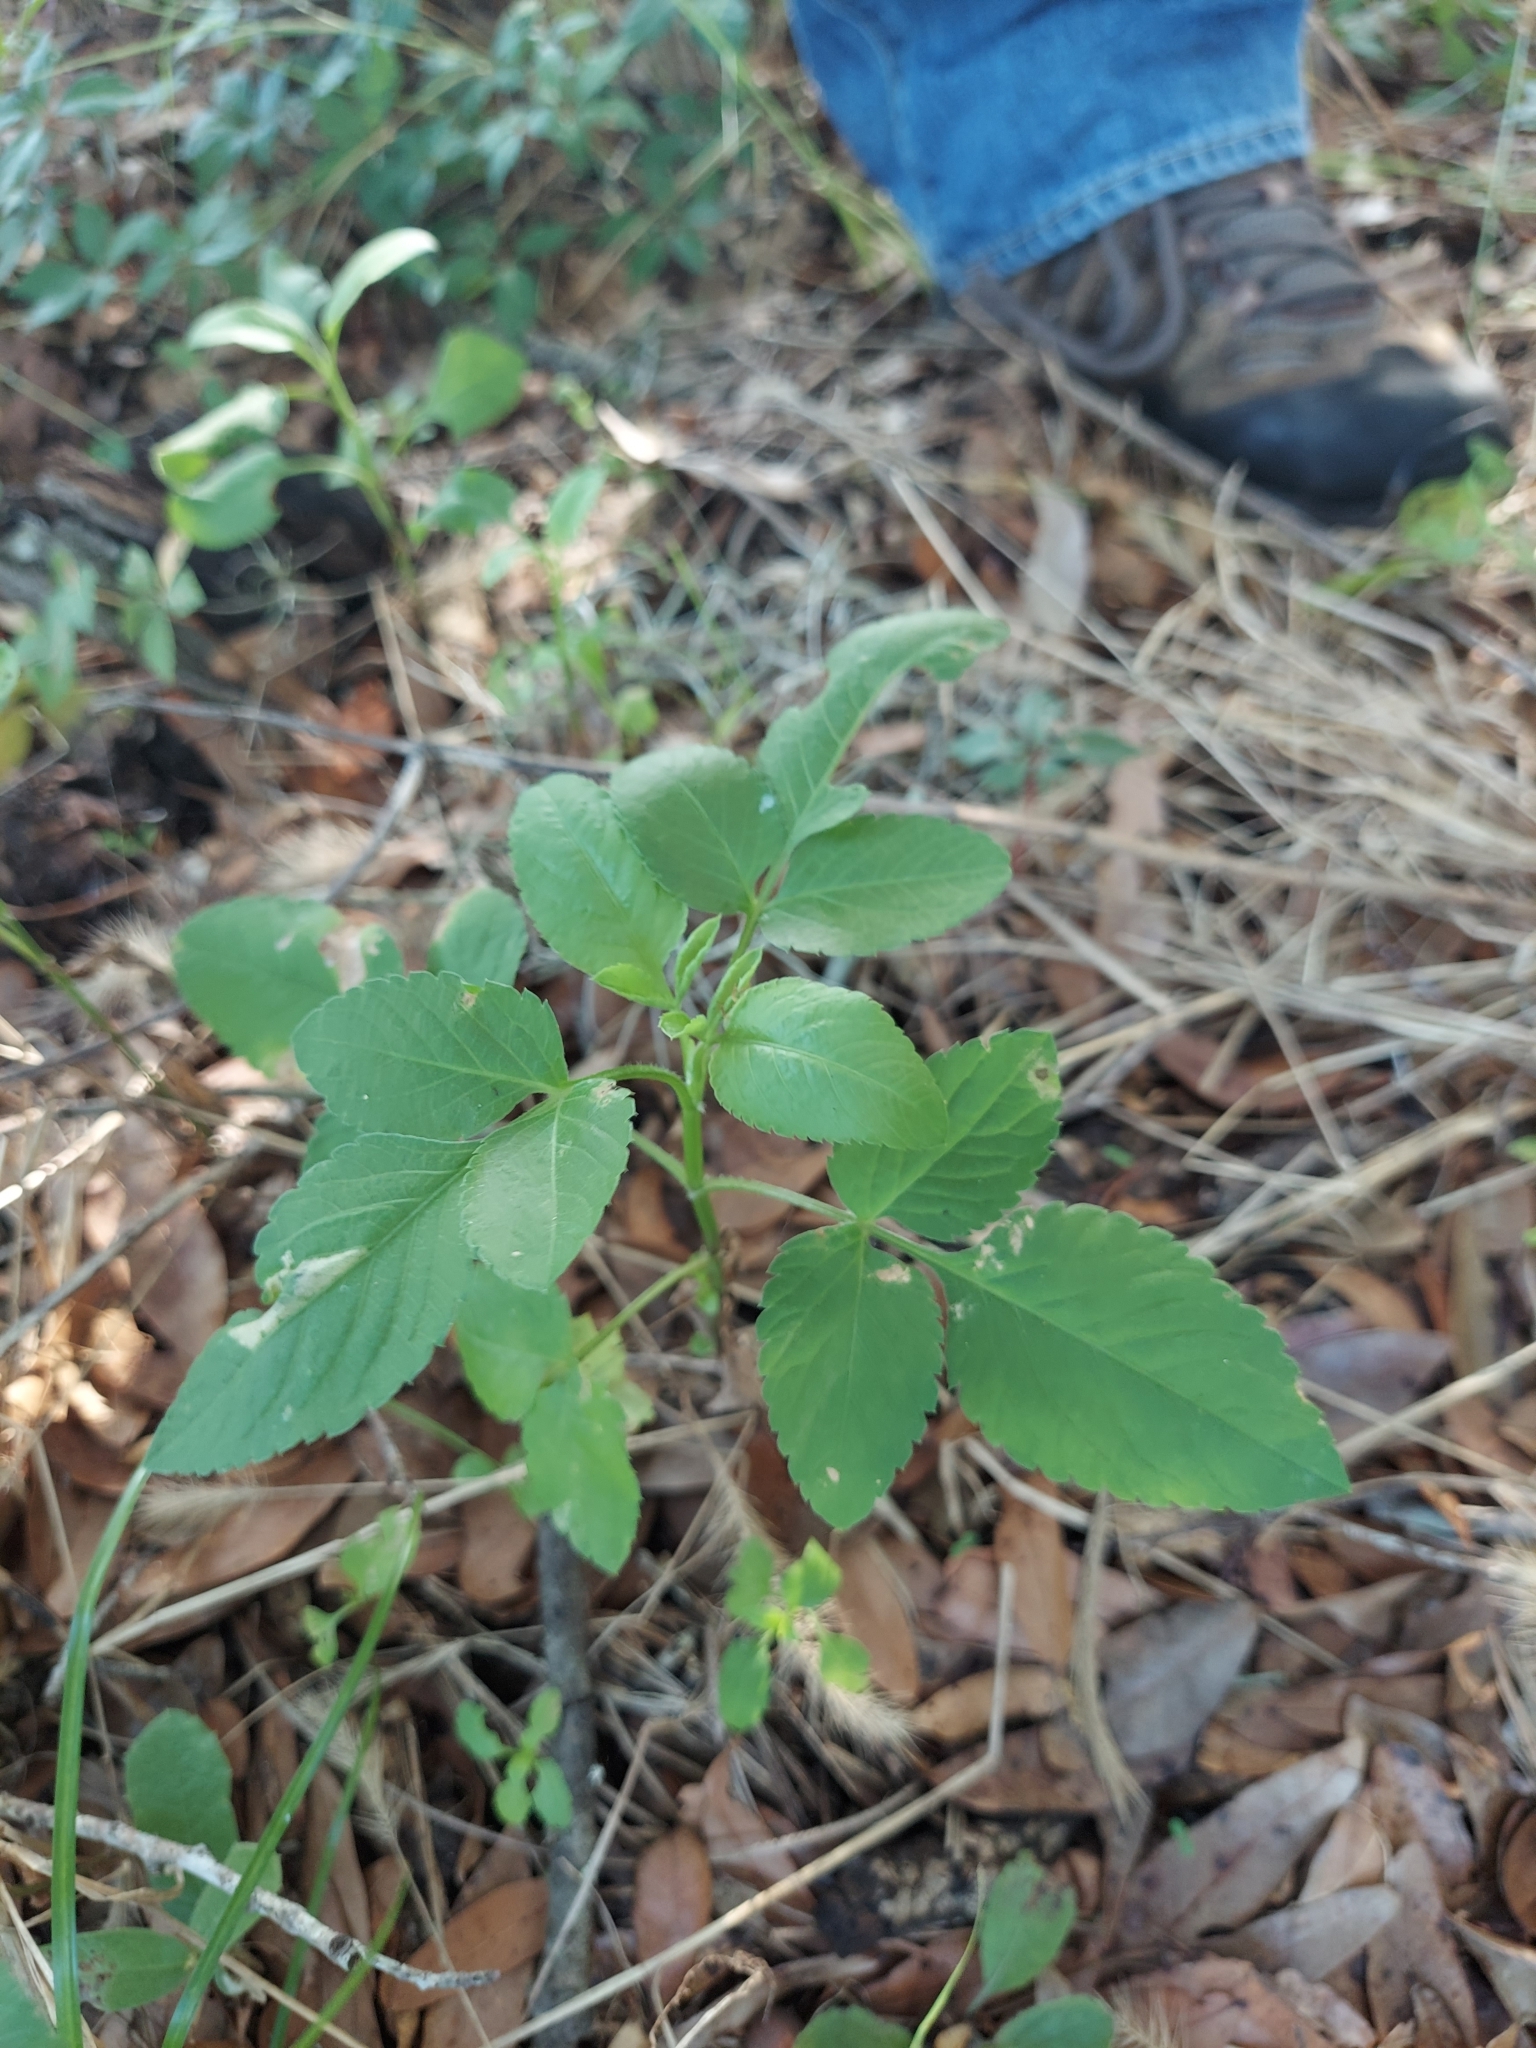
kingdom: Plantae
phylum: Tracheophyta
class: Magnoliopsida
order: Asterales
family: Asteraceae
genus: Bidens
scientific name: Bidens alba
